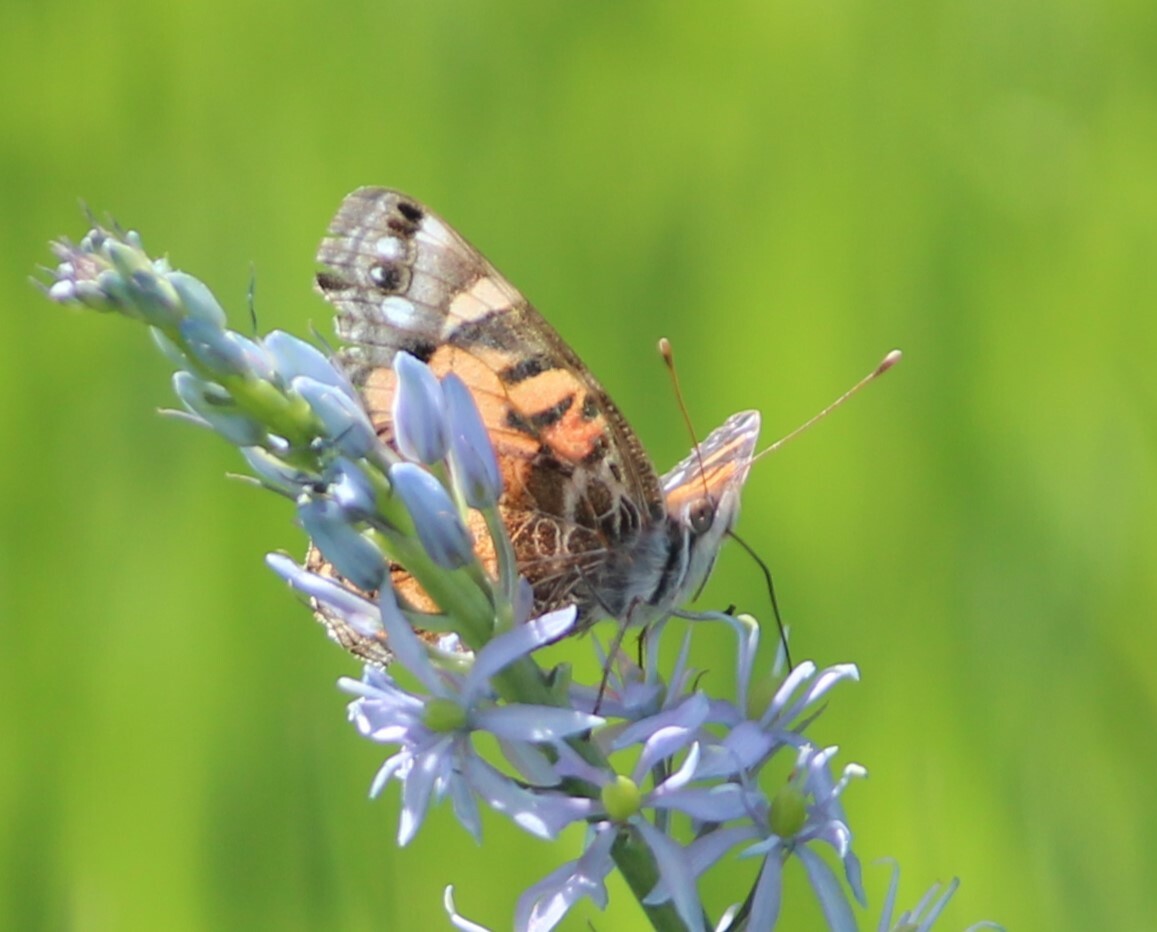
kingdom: Animalia
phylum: Arthropoda
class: Insecta
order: Lepidoptera
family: Nymphalidae
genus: Vanessa
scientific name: Vanessa virginiensis
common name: American lady
